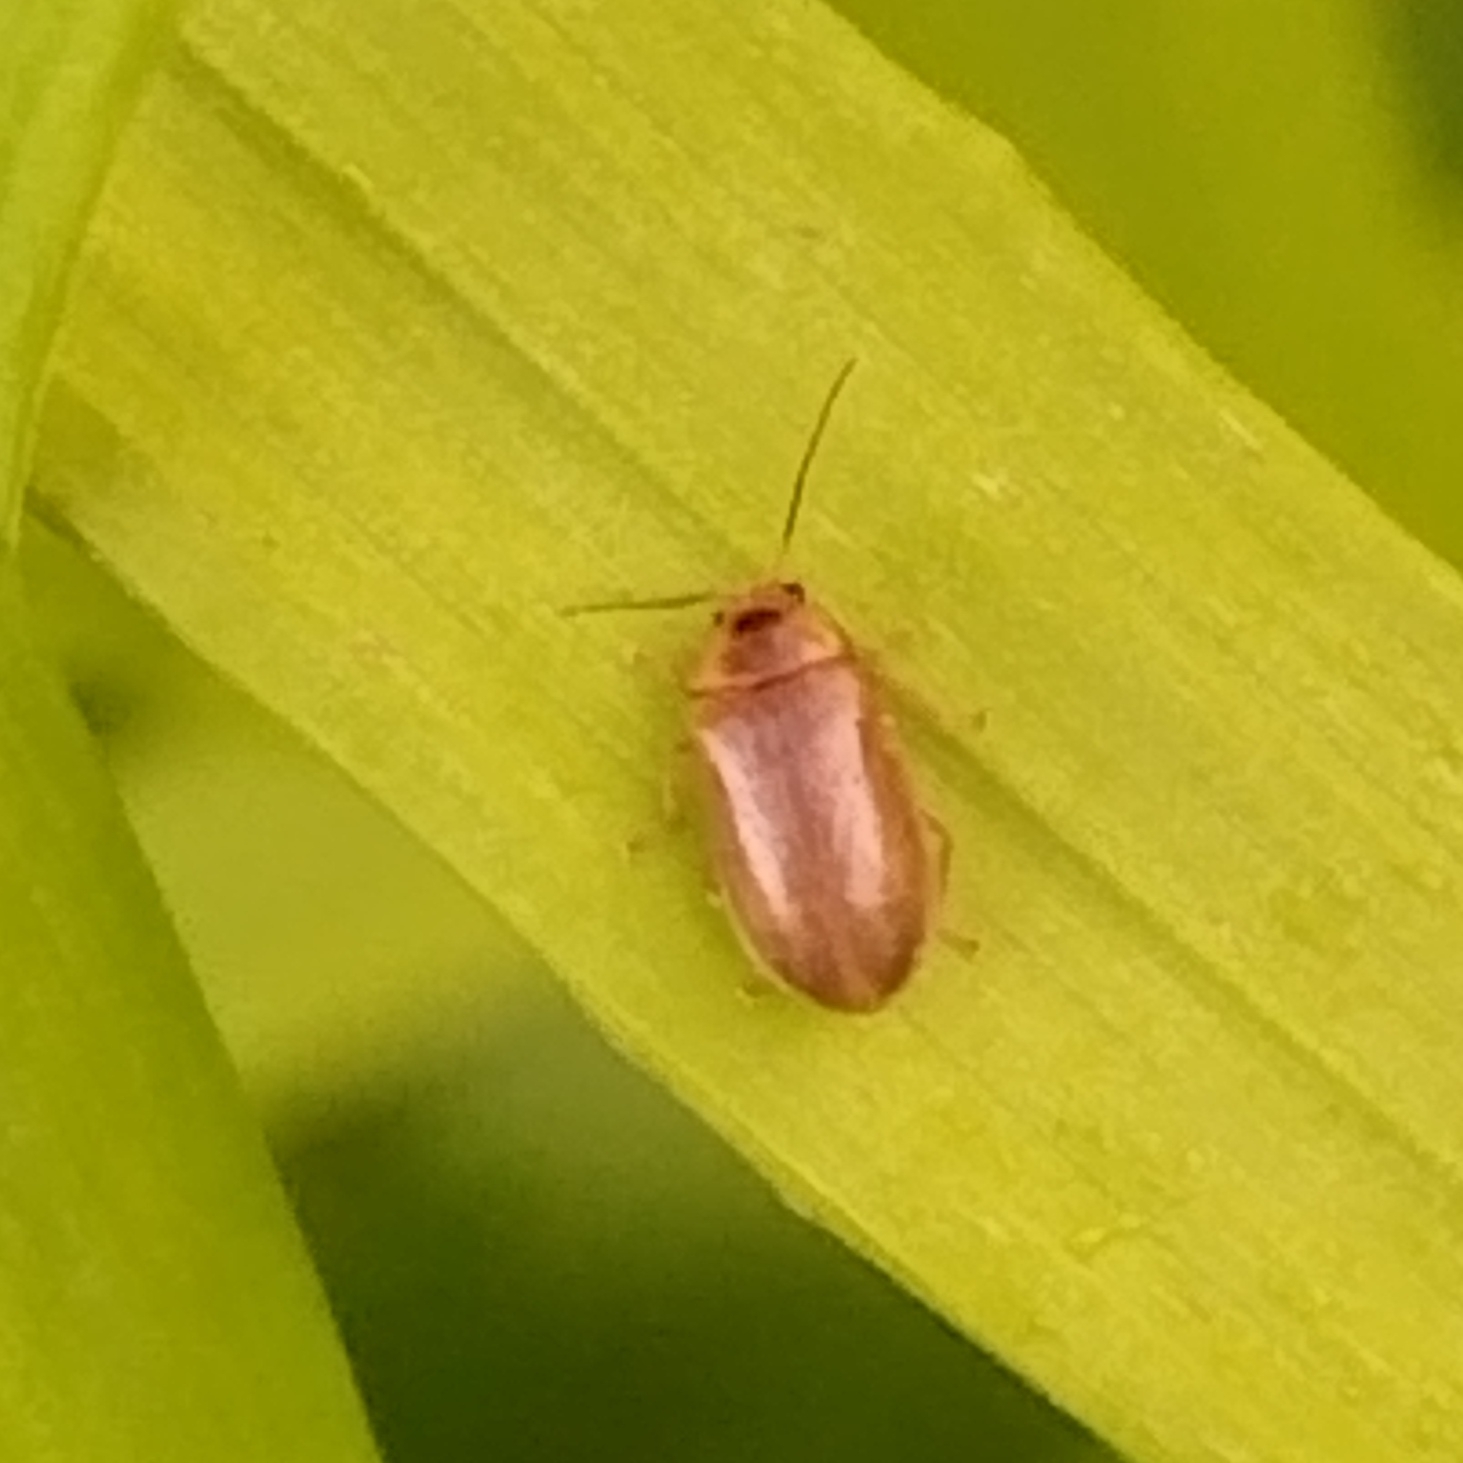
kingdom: Animalia
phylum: Arthropoda
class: Insecta
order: Coleoptera
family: Scirtidae
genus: Microcara
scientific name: Microcara testacea
